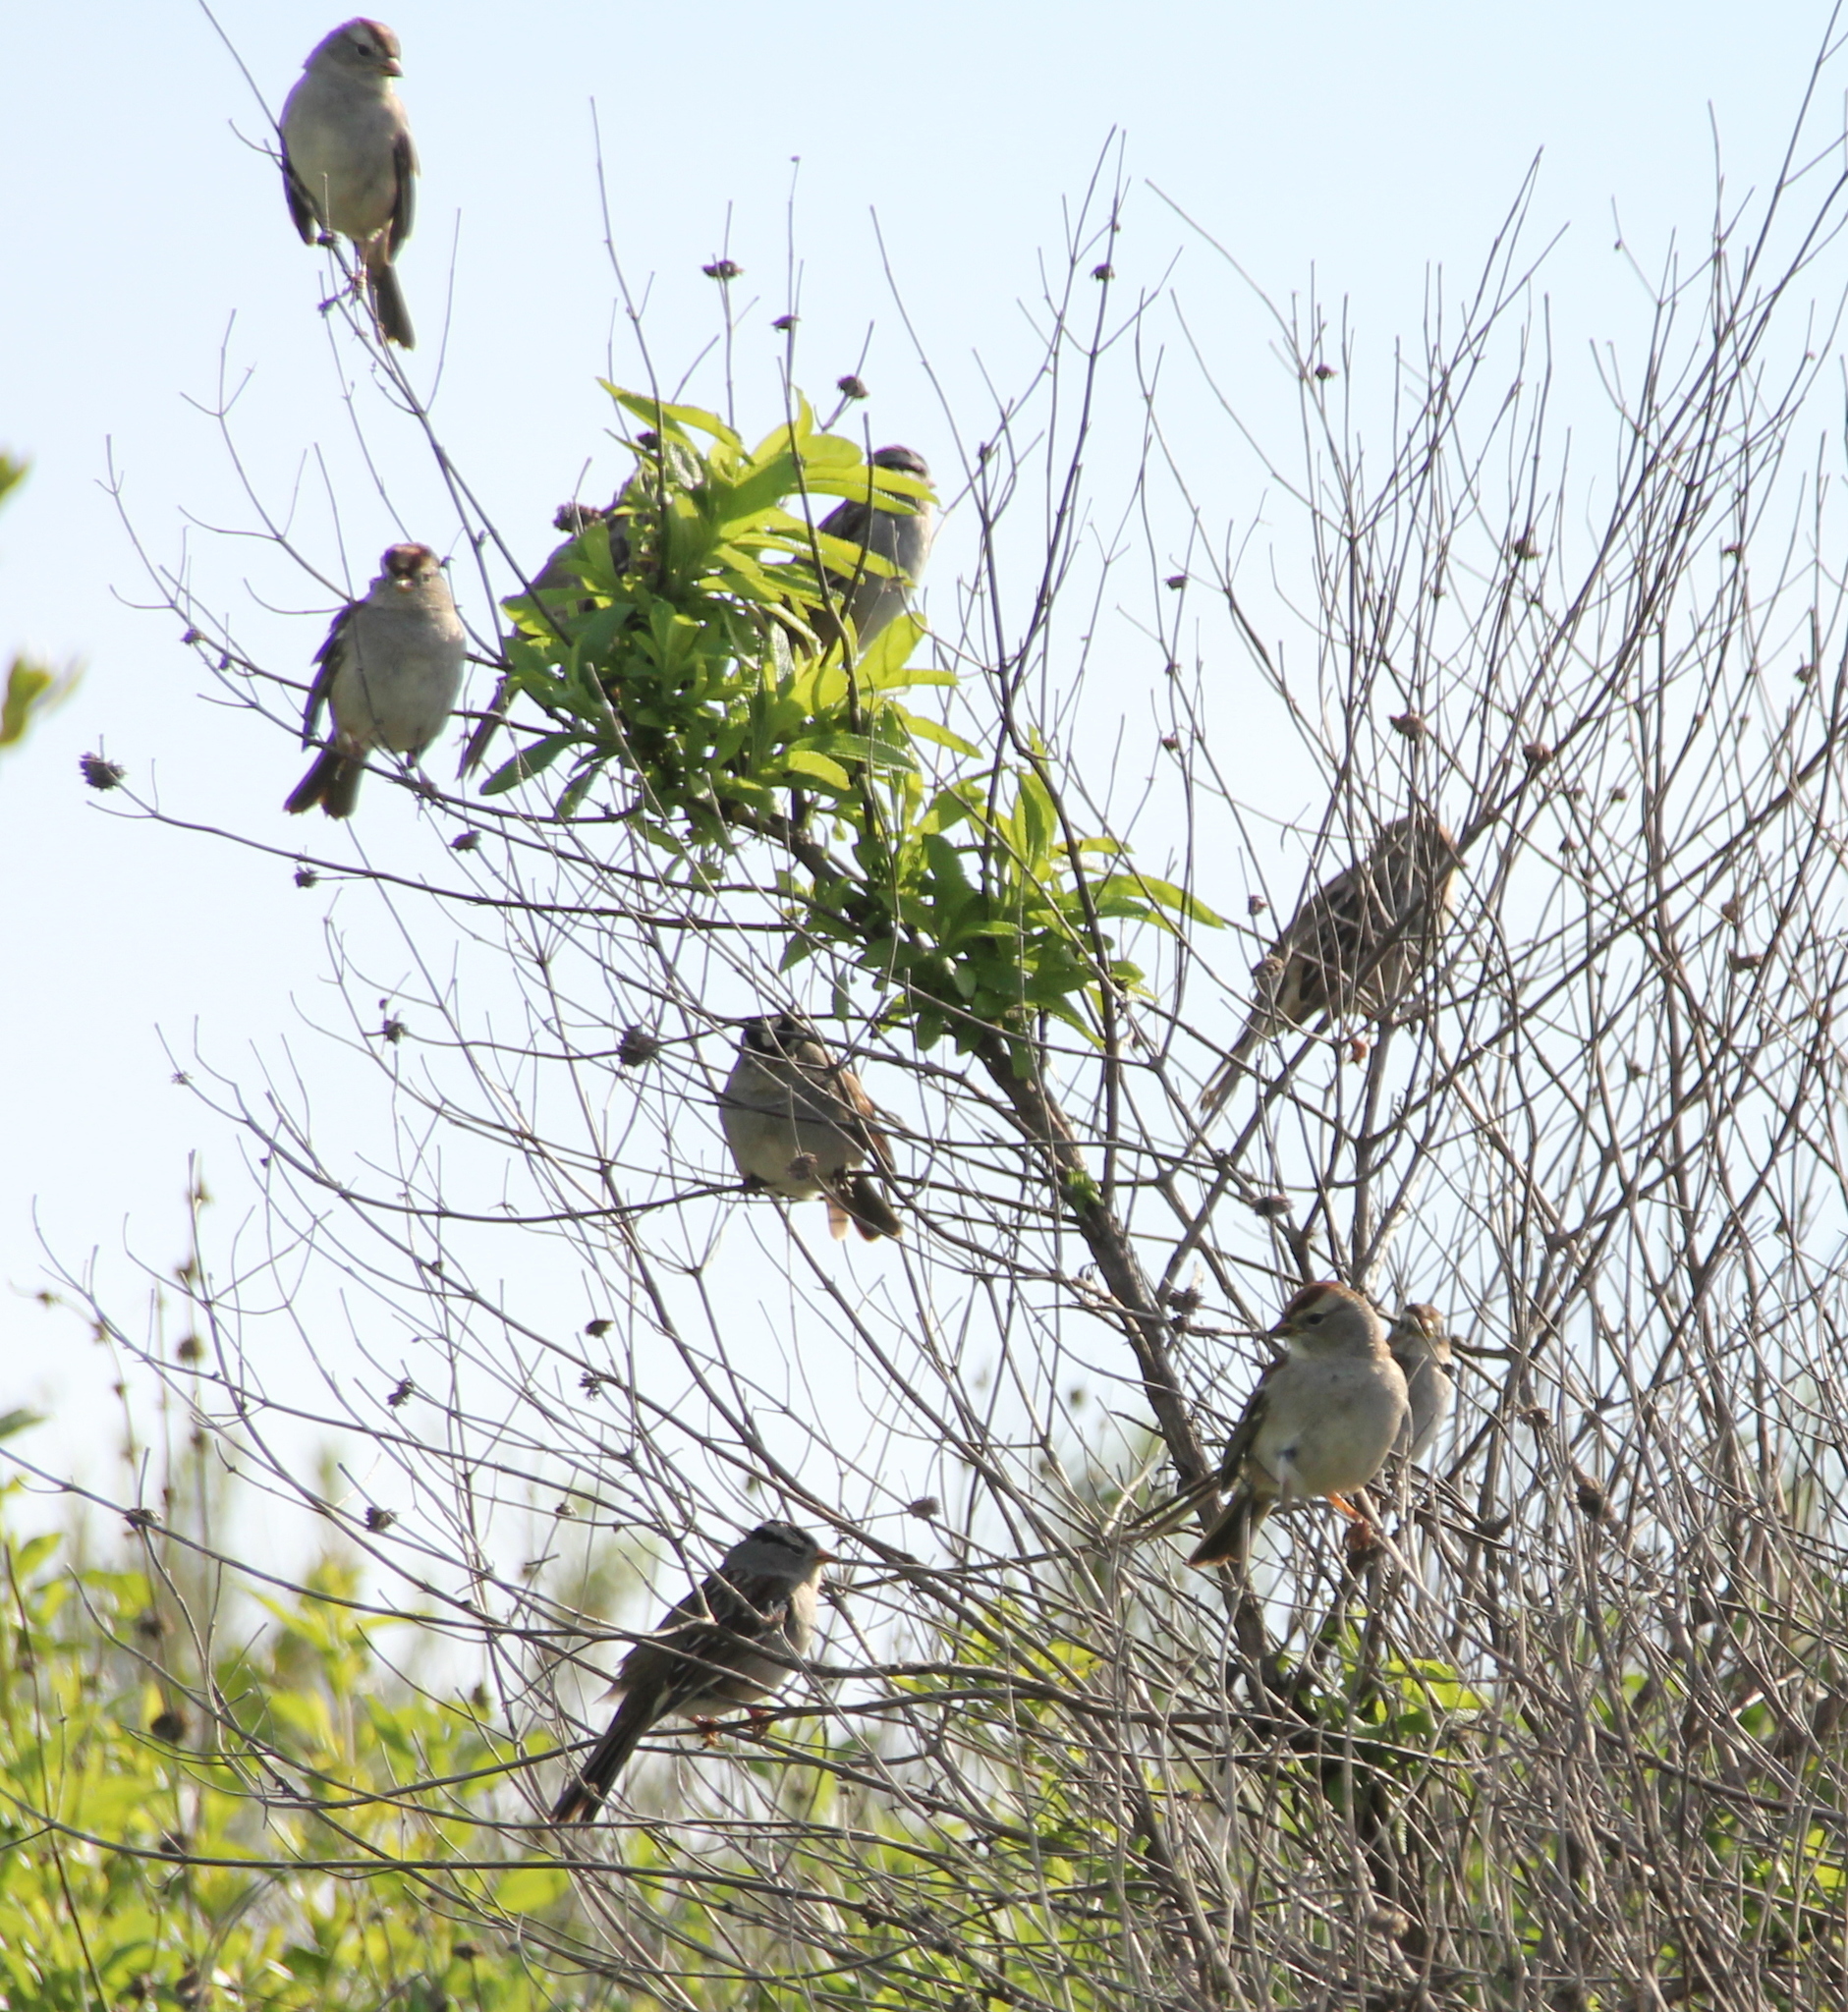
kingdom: Animalia
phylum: Chordata
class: Aves
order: Passeriformes
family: Passerellidae
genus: Zonotrichia
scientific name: Zonotrichia leucophrys
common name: White-crowned sparrow
